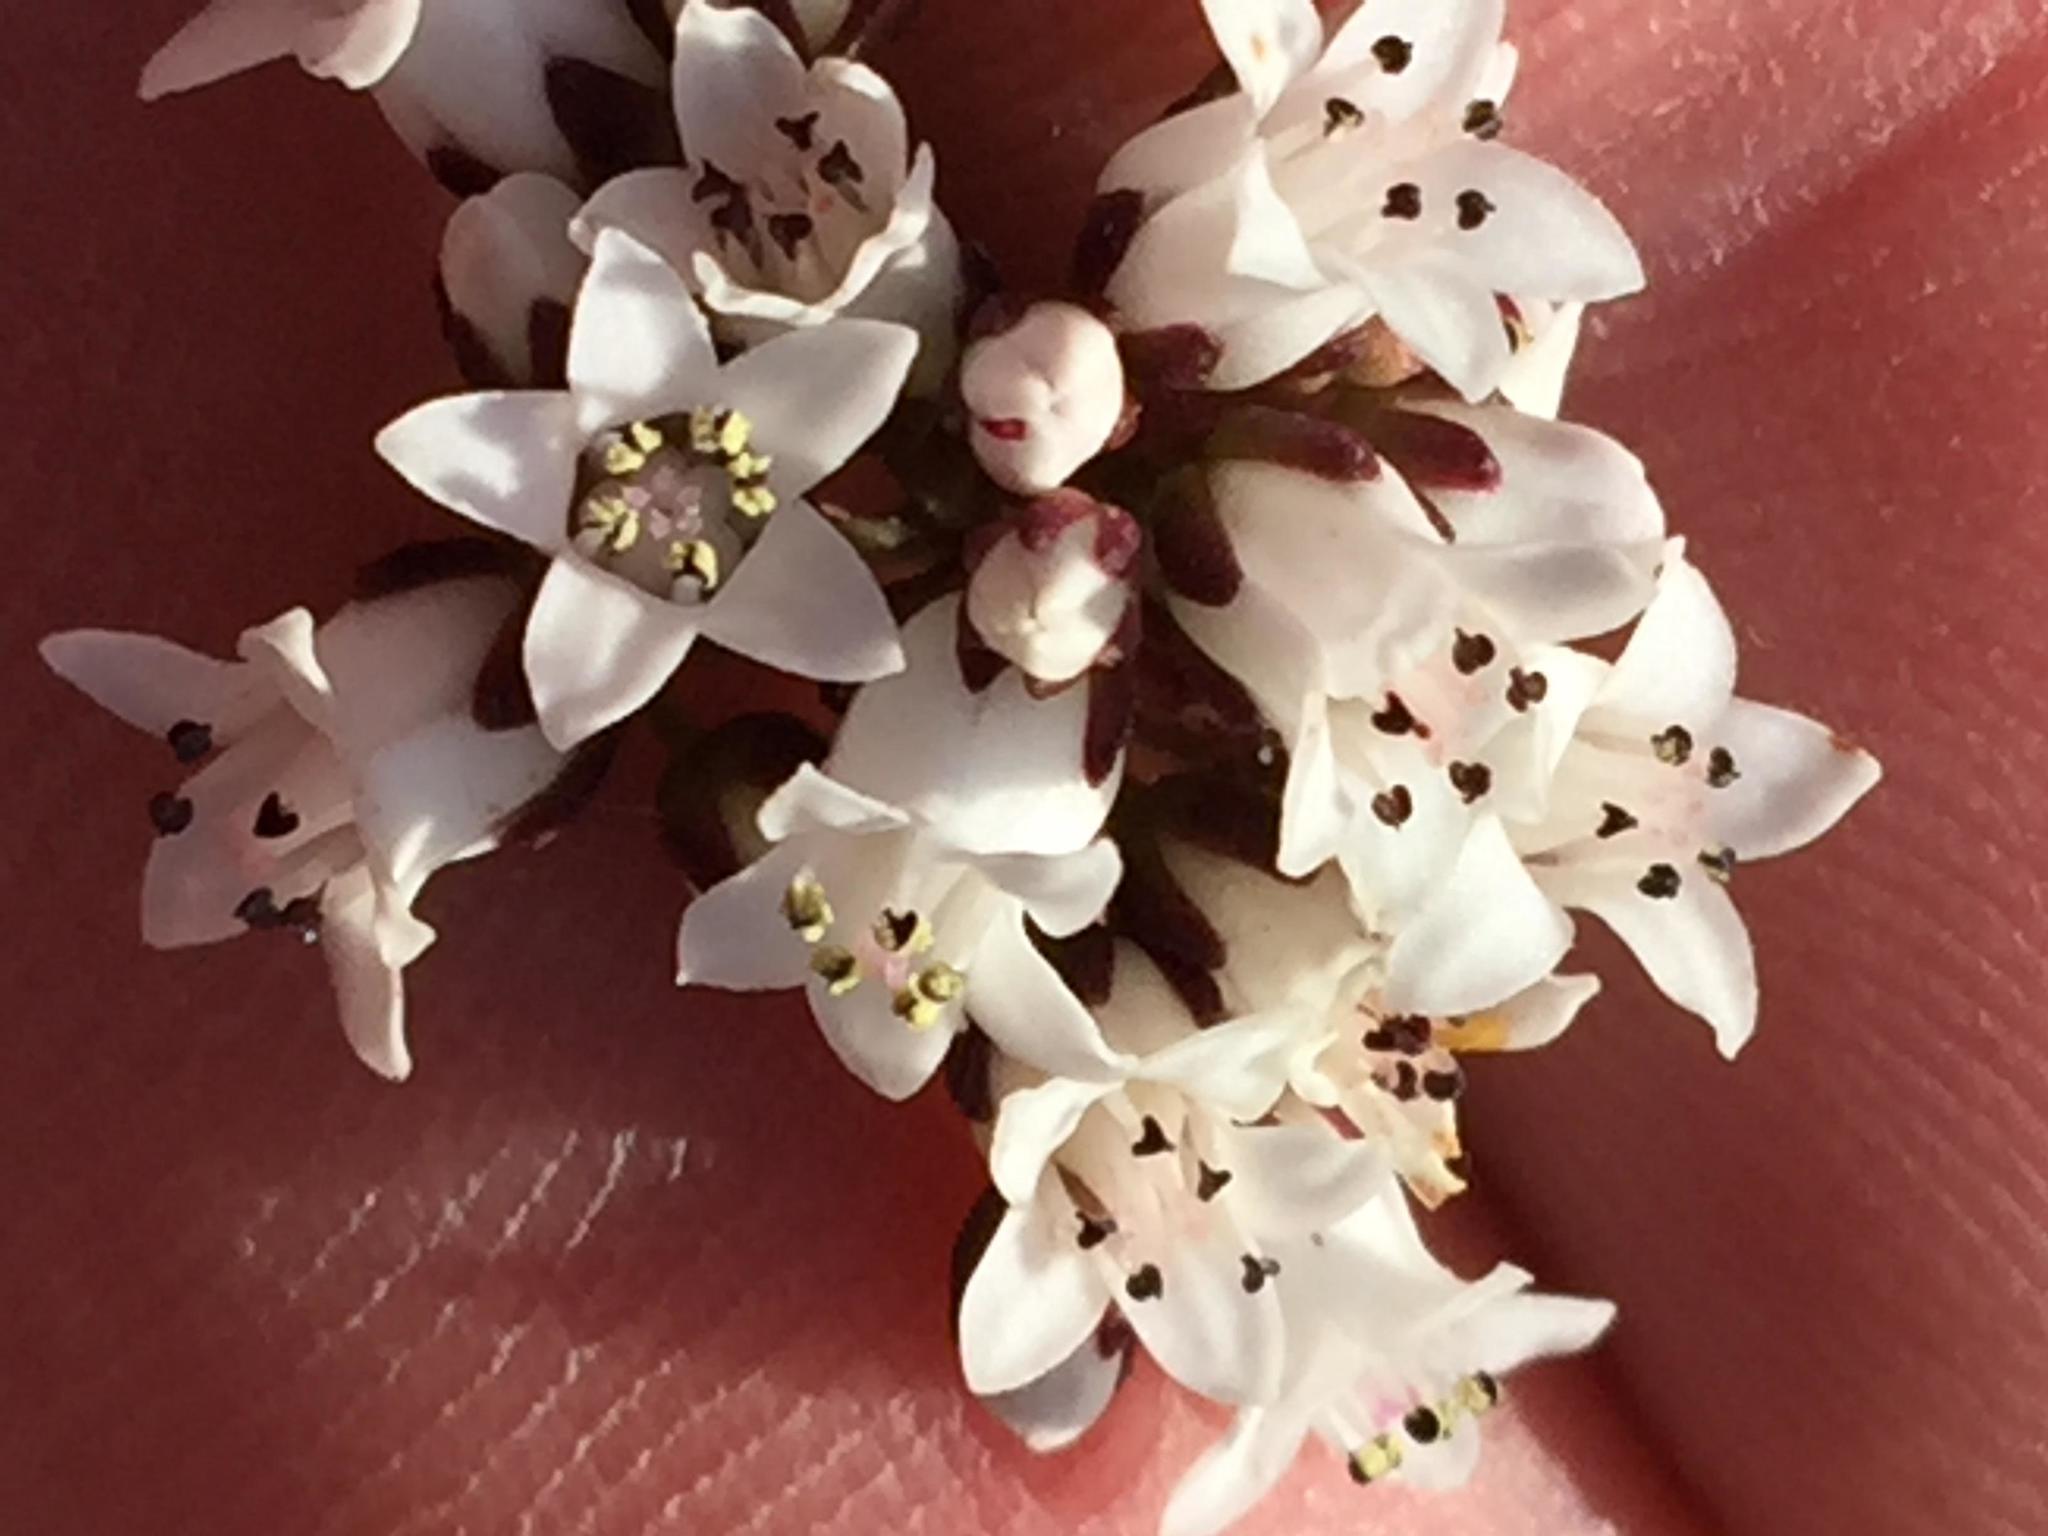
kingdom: Plantae
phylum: Tracheophyta
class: Magnoliopsida
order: Saxifragales
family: Crassulaceae
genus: Crassula
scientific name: Crassula saxifraga
